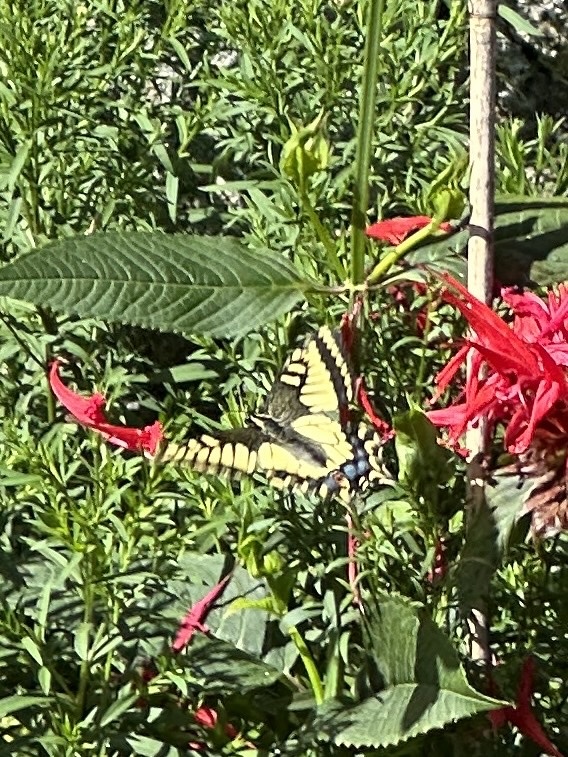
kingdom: Animalia
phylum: Arthropoda
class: Insecta
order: Lepidoptera
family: Papilionidae
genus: Papilio
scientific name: Papilio zelicaon
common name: Anise swallowtail
